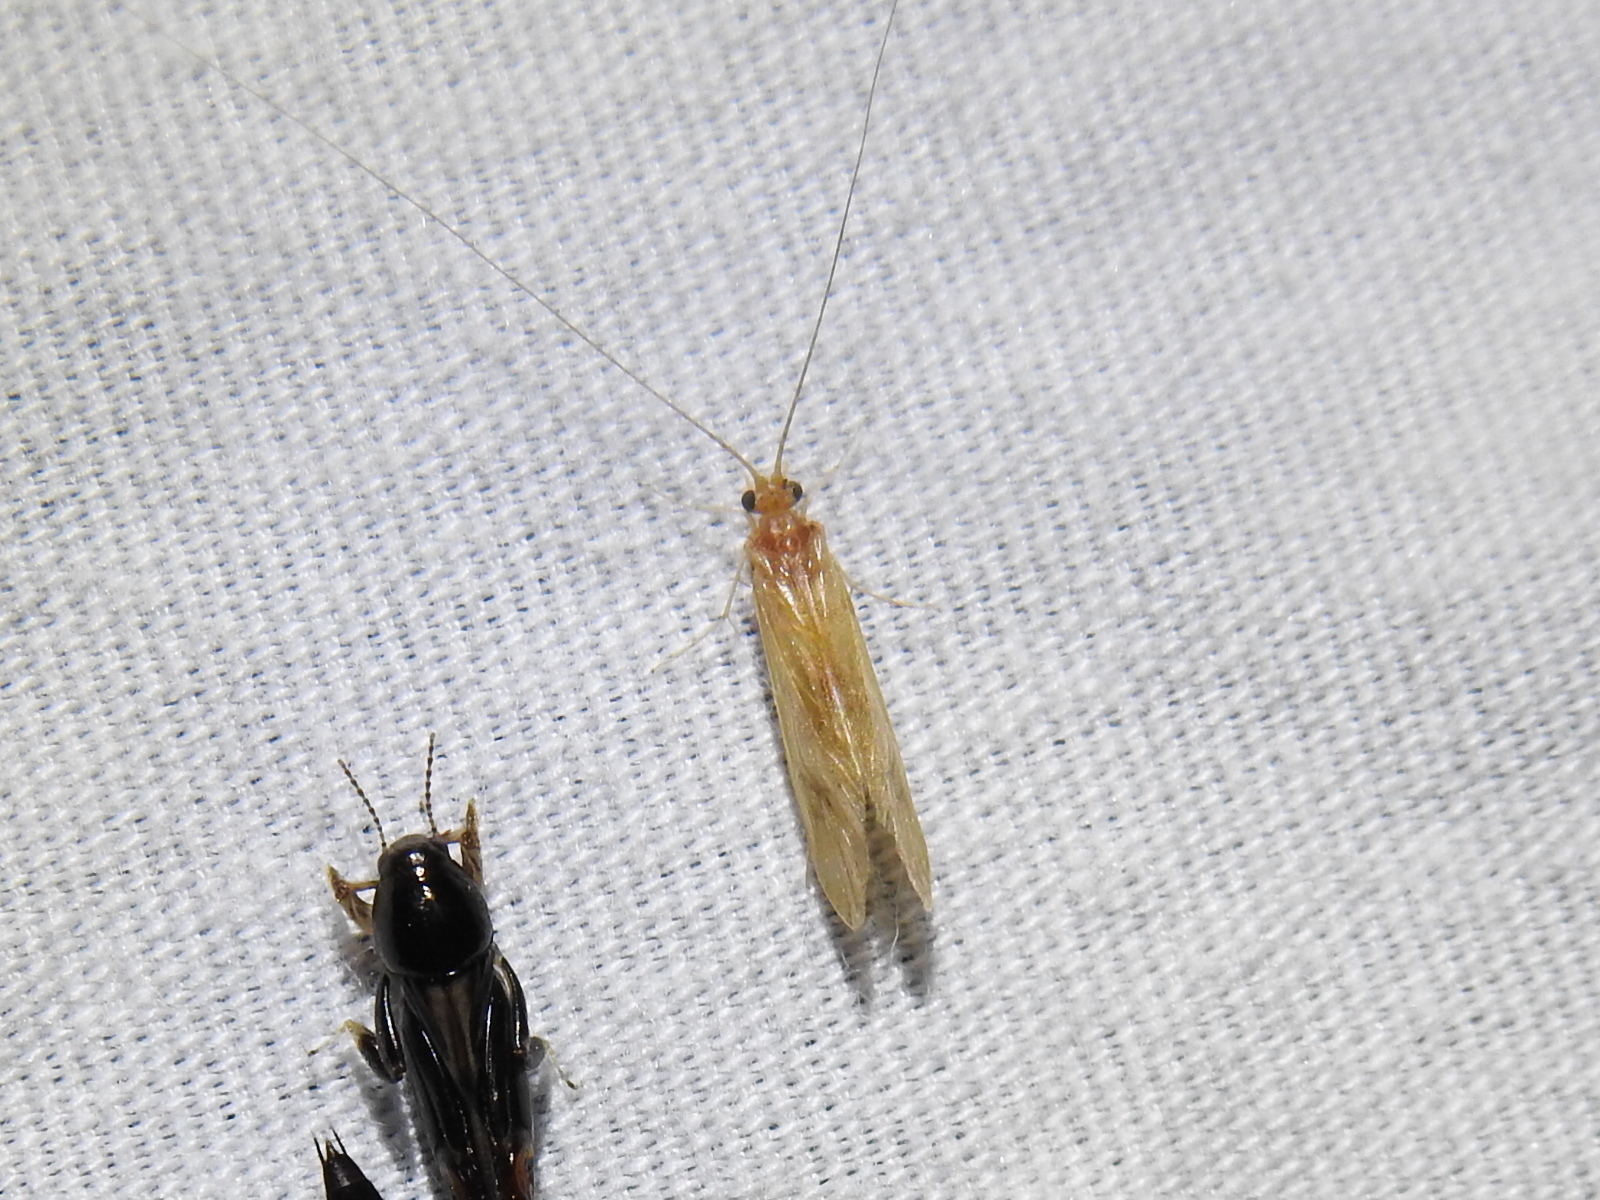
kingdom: Animalia
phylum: Arthropoda
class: Insecta
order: Trichoptera
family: Hydropsychidae
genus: Potamyia
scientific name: Potamyia flava
